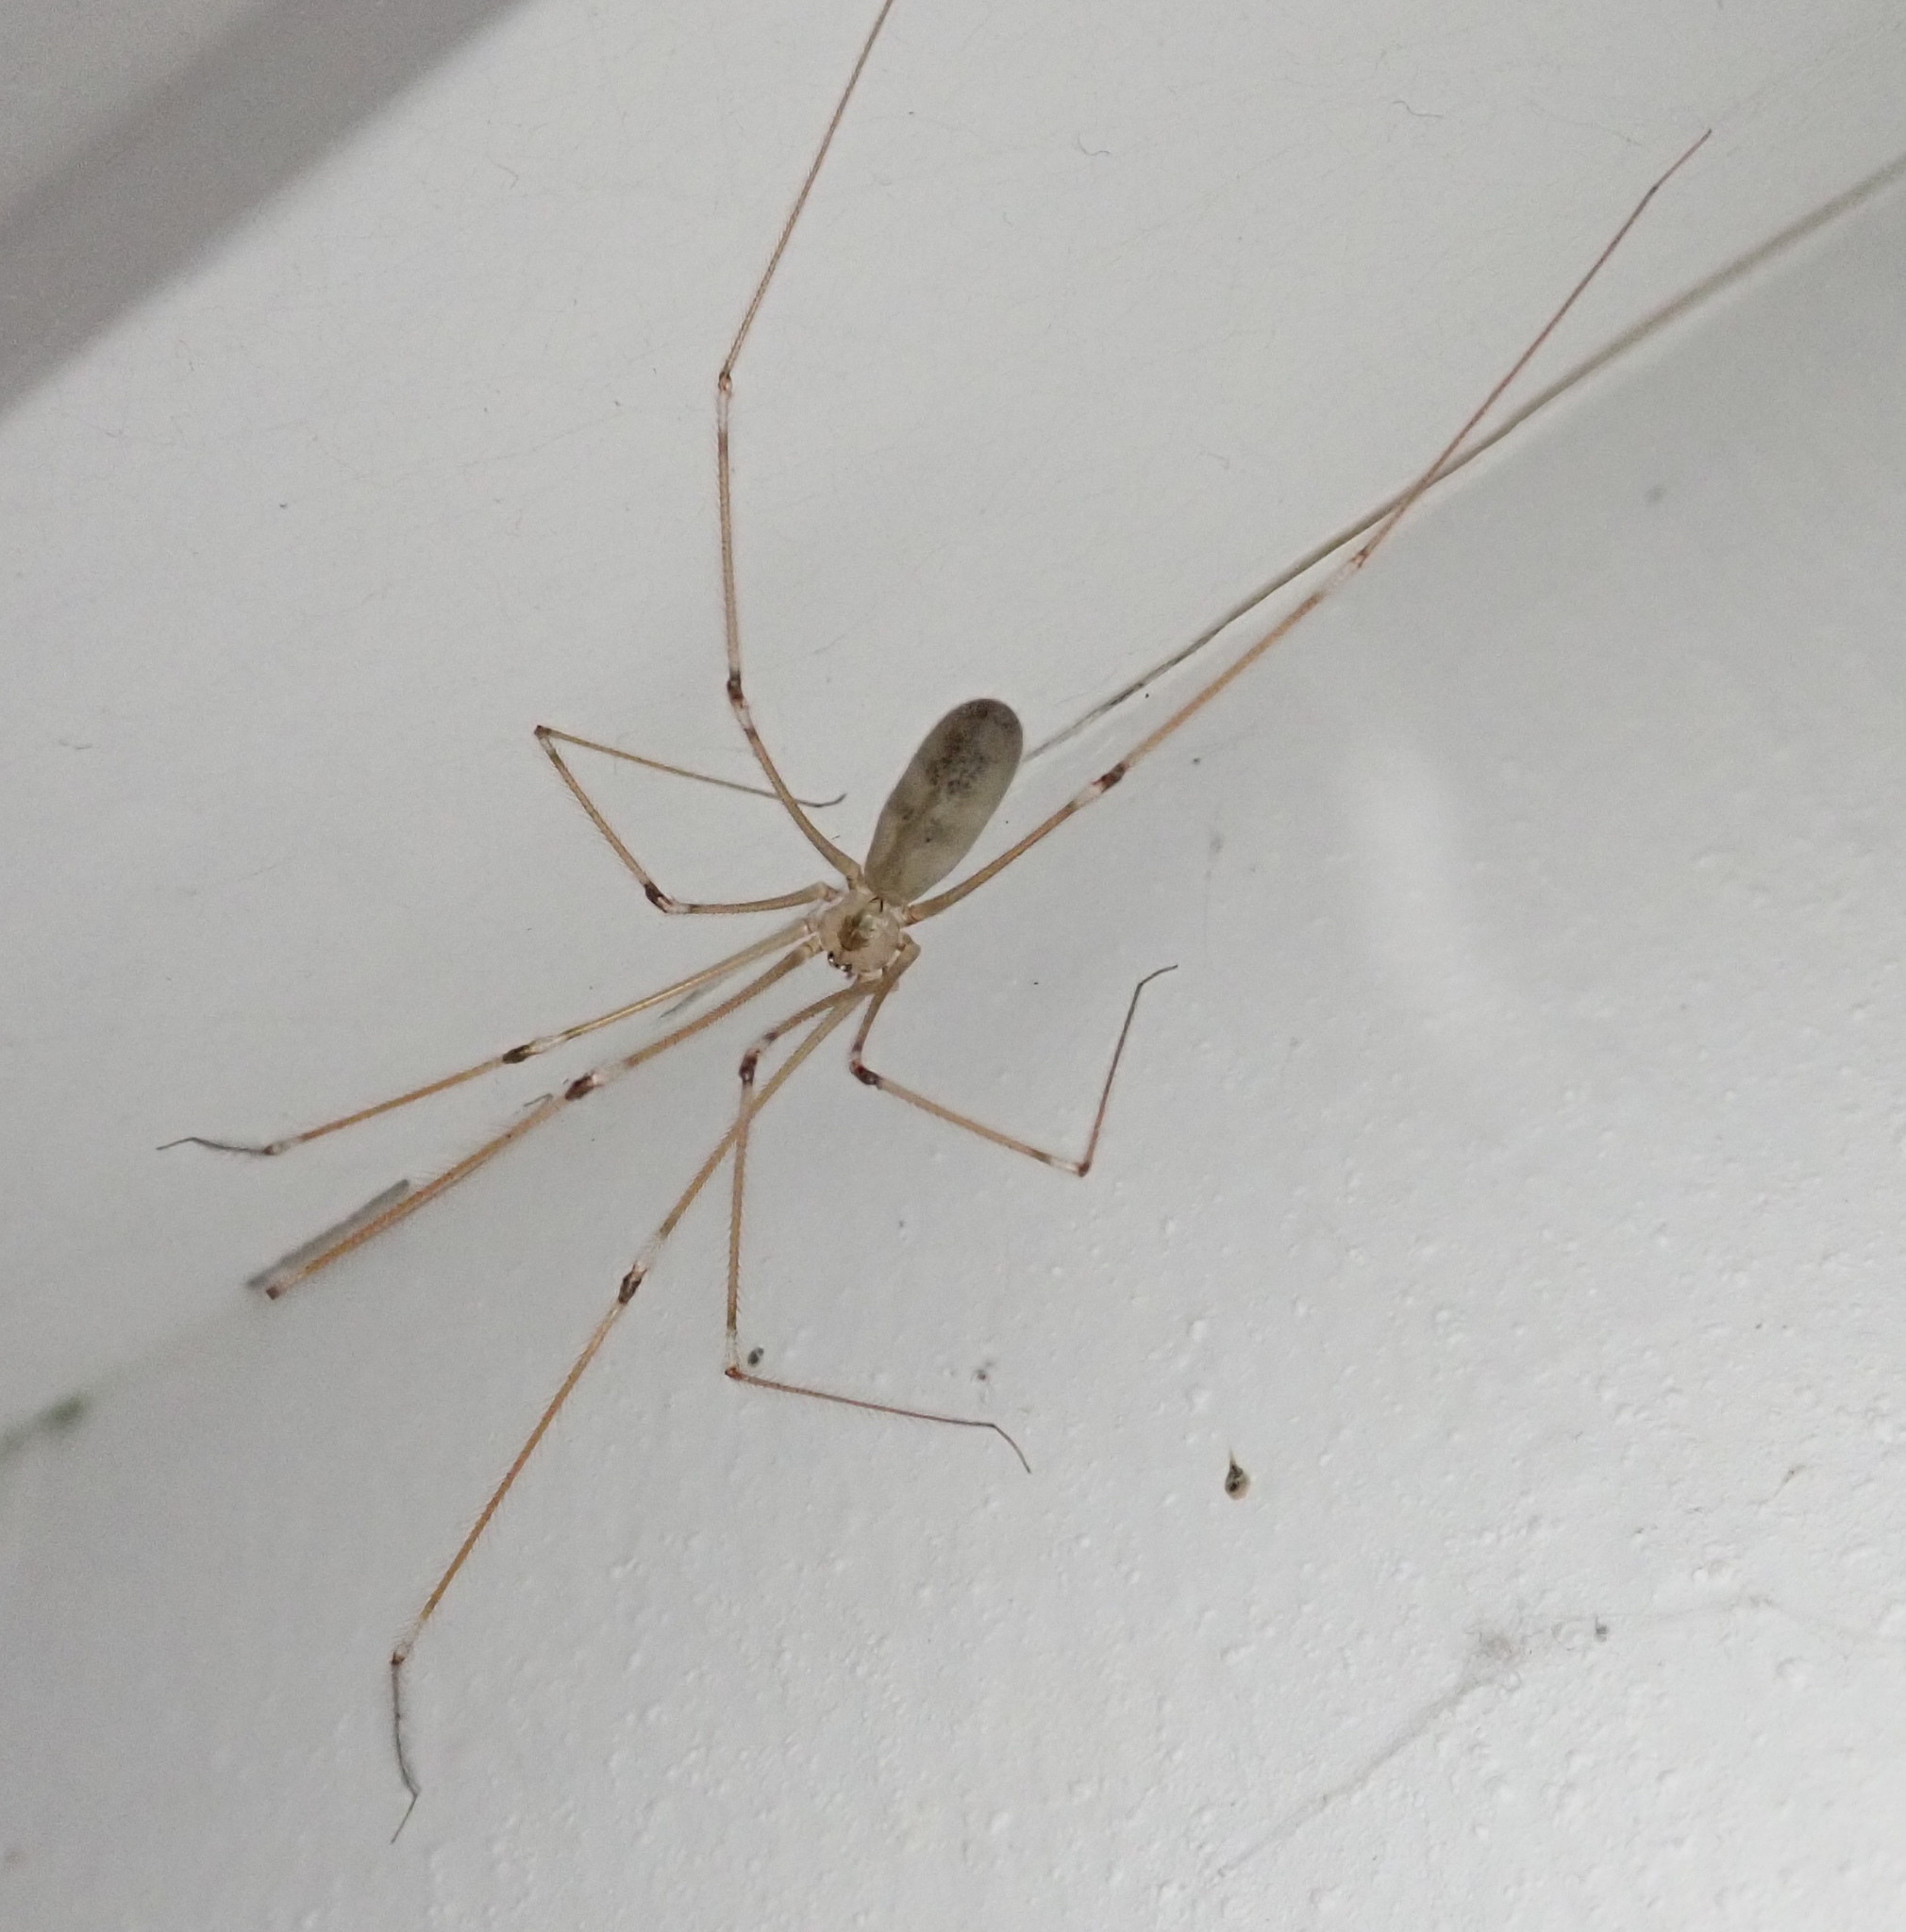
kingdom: Animalia
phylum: Arthropoda
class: Arachnida
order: Araneae
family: Pholcidae
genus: Pholcus
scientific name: Pholcus phalangioides
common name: Longbodied cellar spider
